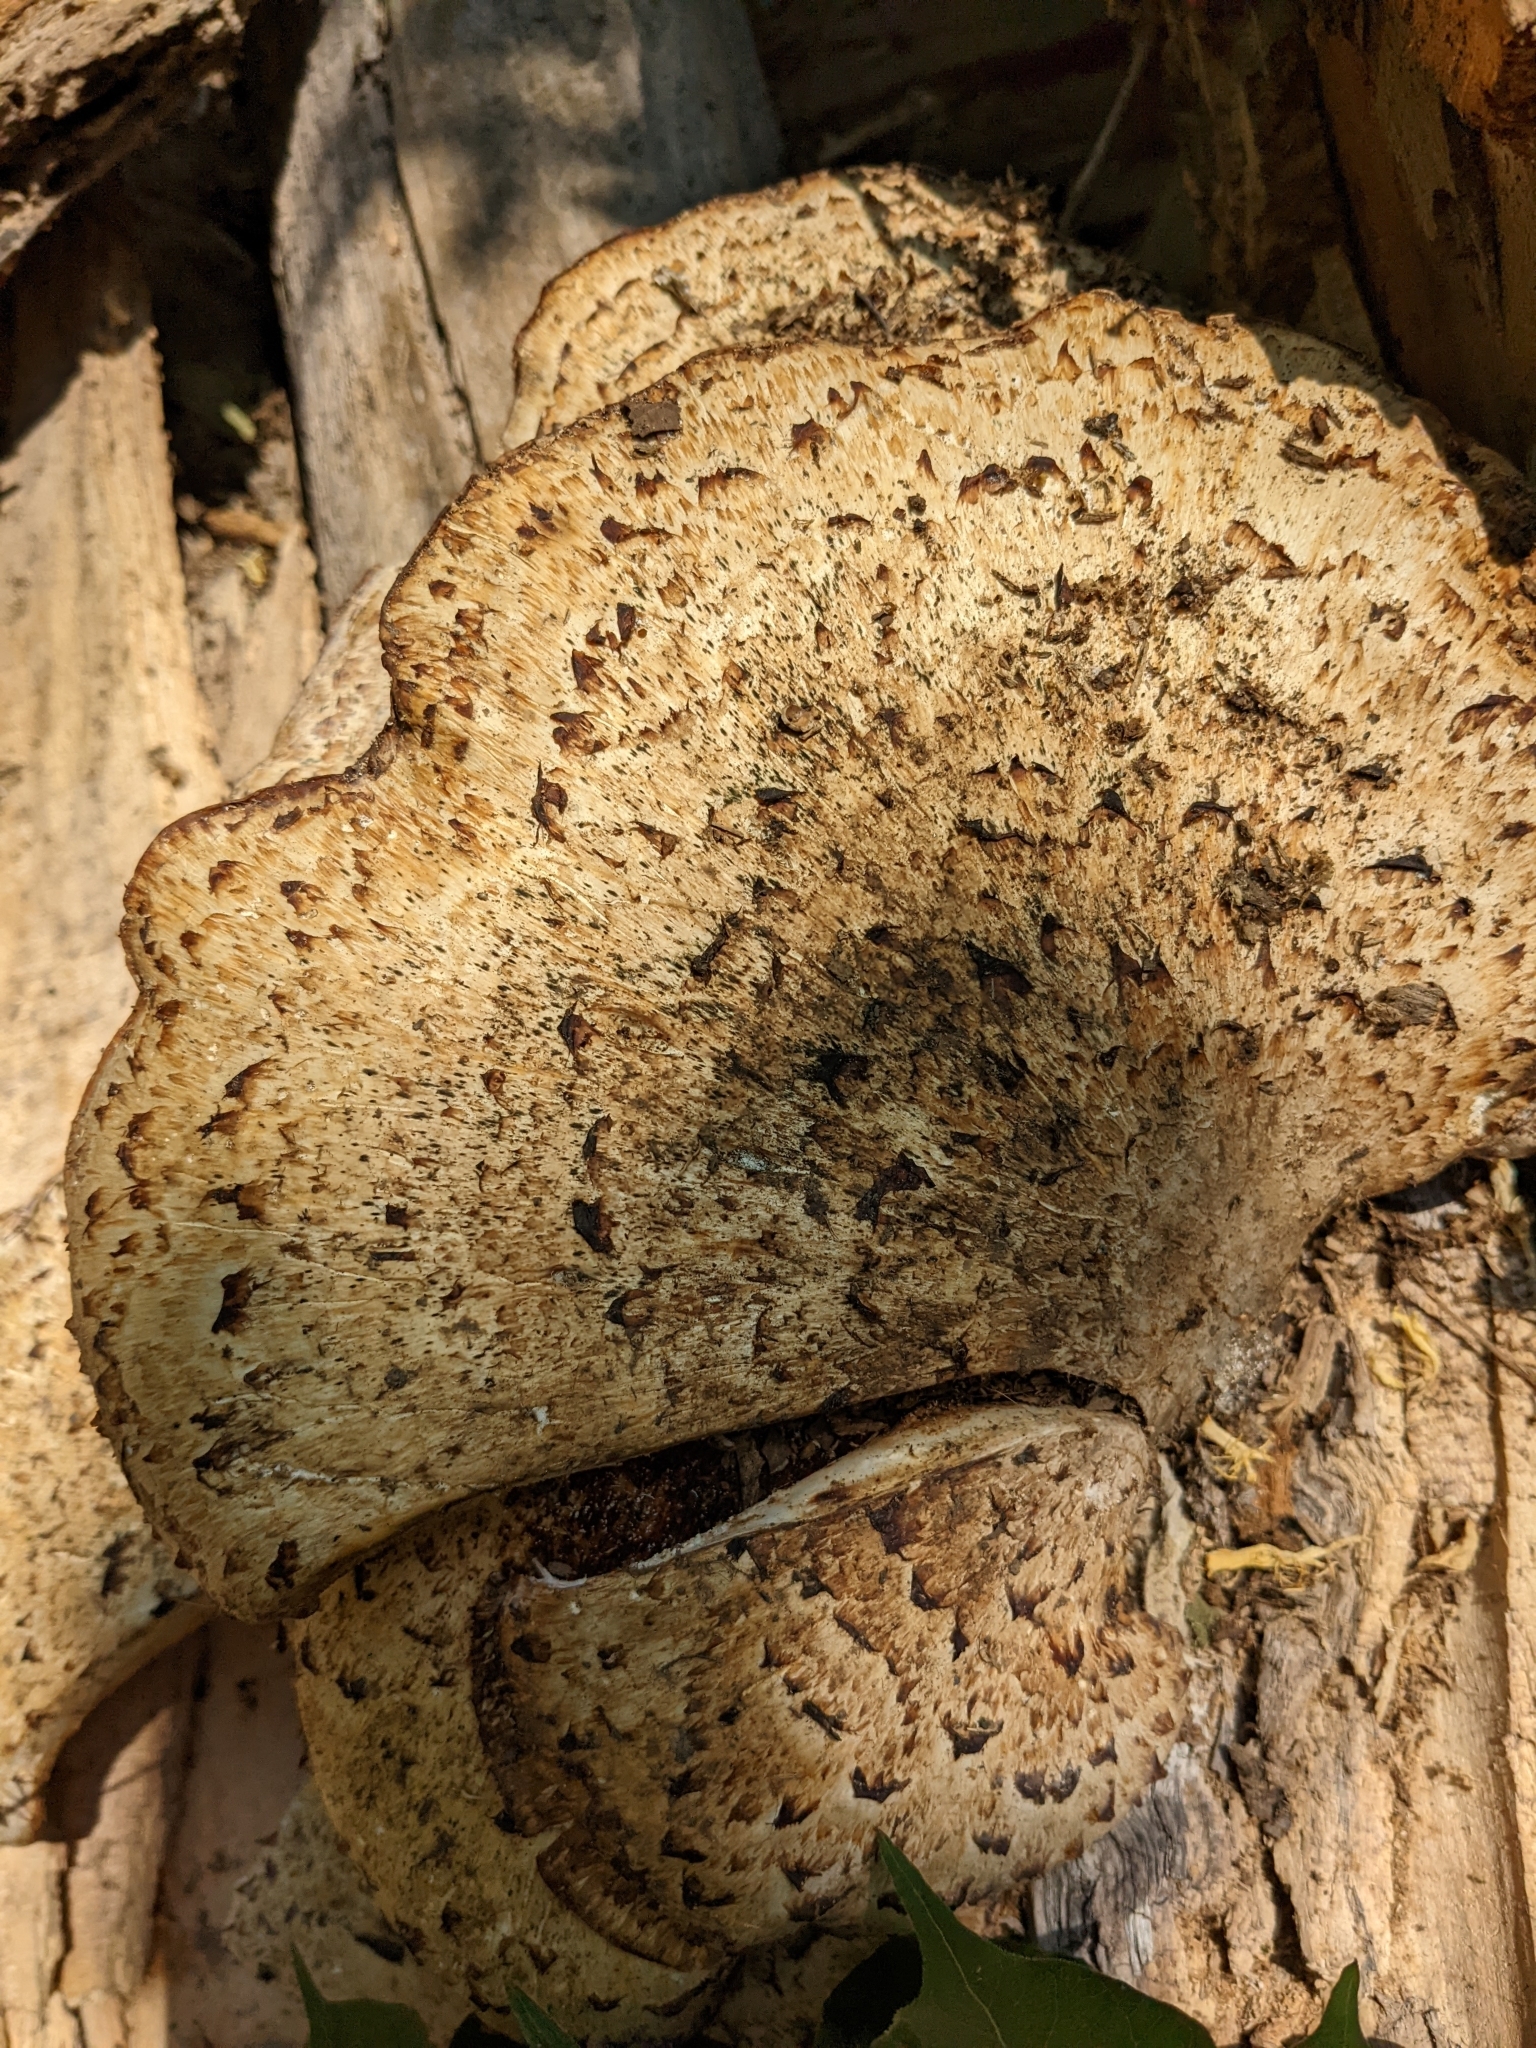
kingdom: Fungi
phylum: Basidiomycota
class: Agaricomycetes
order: Polyporales
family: Polyporaceae
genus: Cerioporus
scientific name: Cerioporus squamosus
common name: Dryad's saddle
